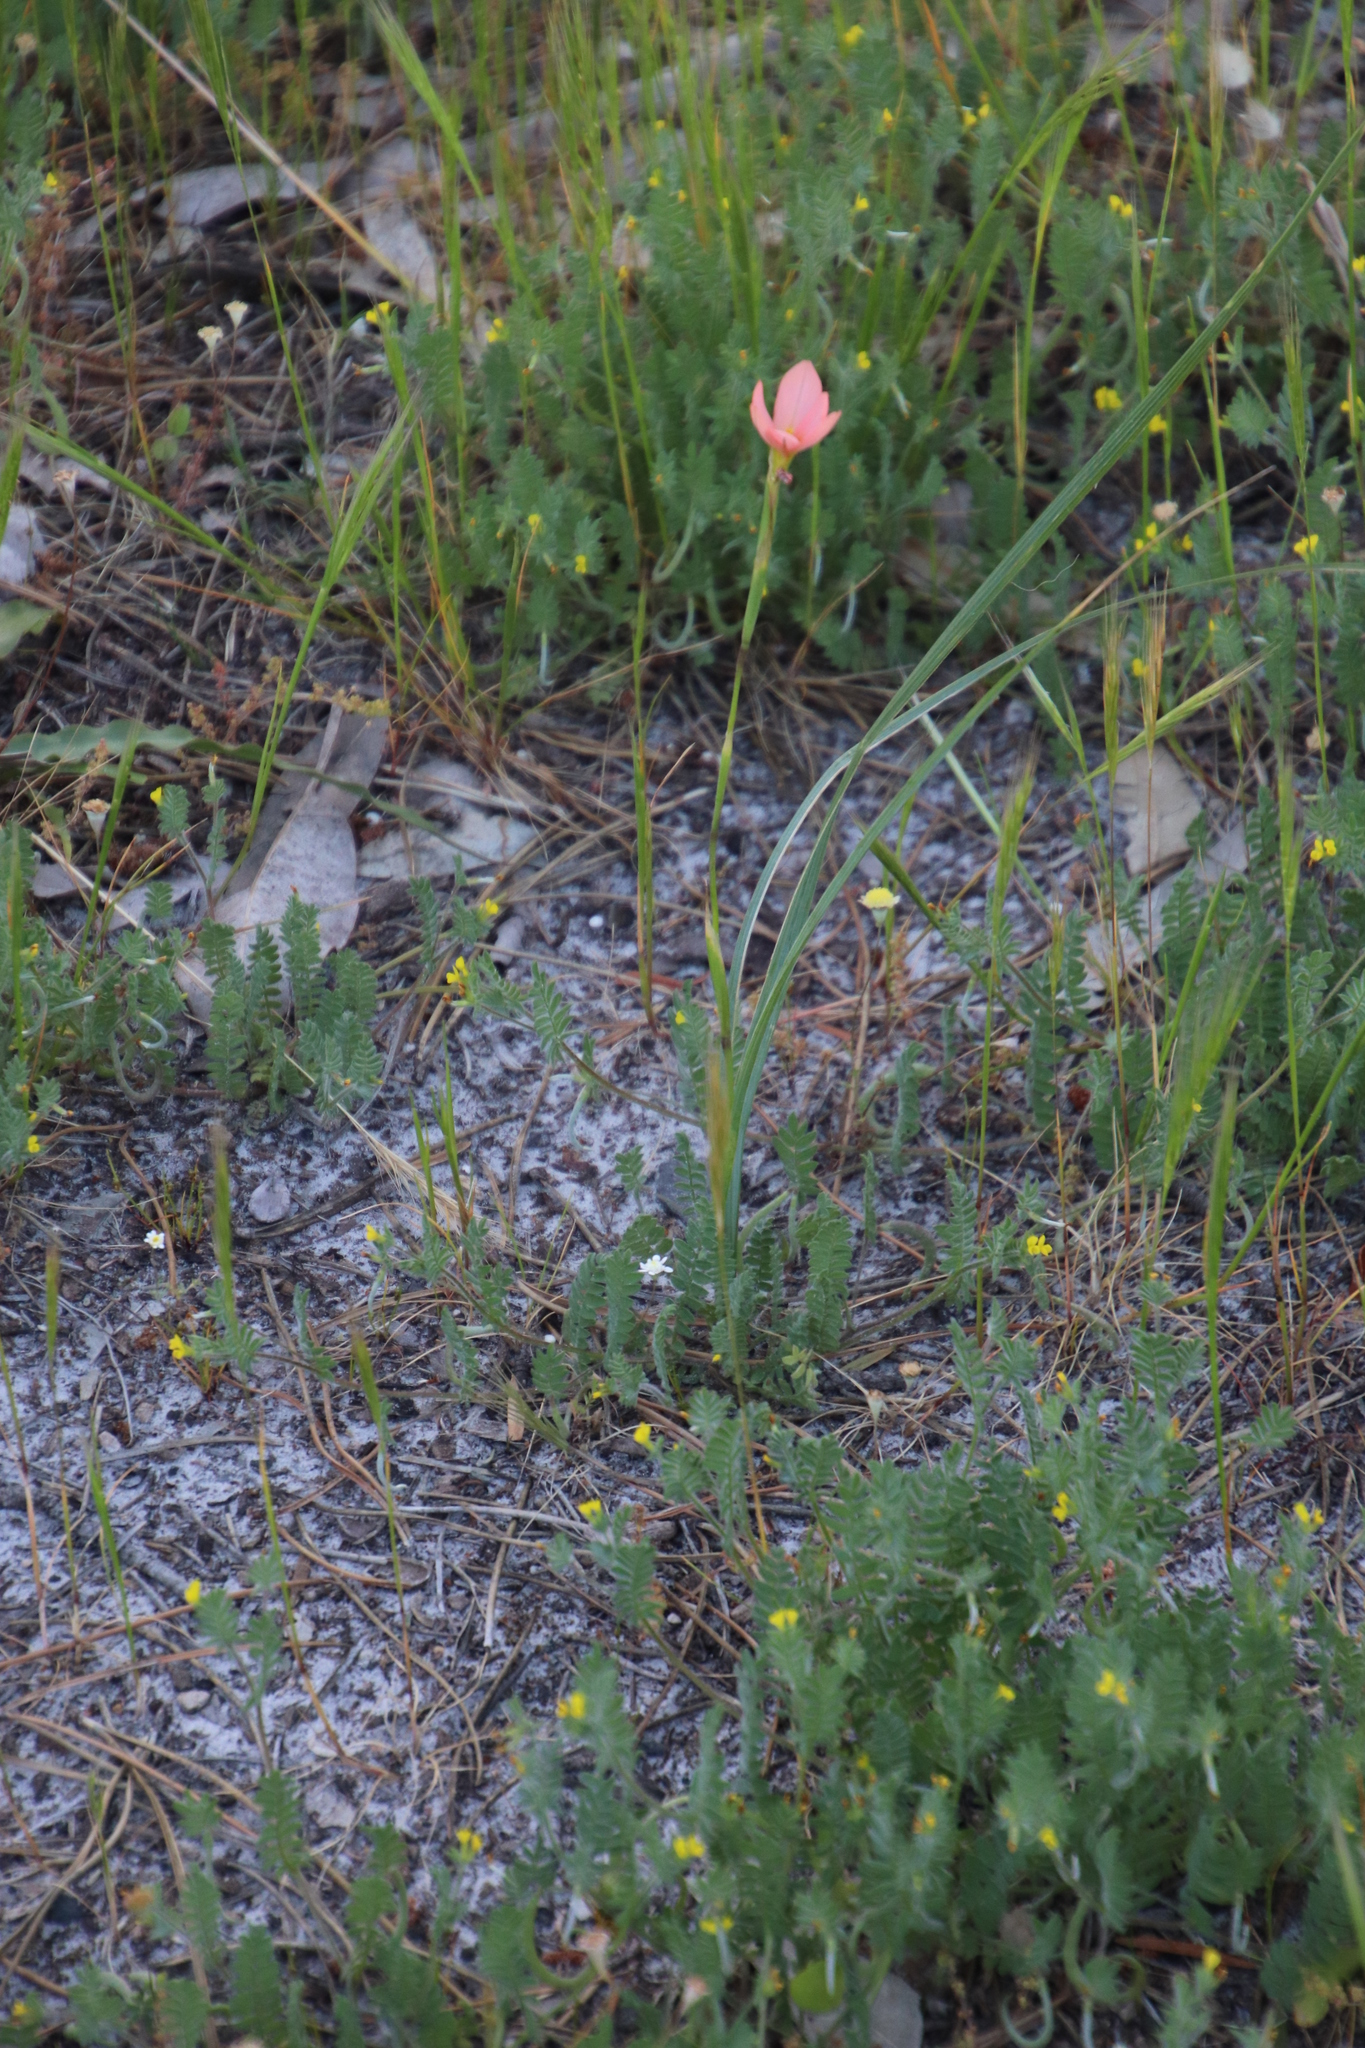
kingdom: Plantae
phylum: Tracheophyta
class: Liliopsida
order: Asparagales
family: Iridaceae
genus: Moraea
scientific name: Moraea miniata
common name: Two-leaf cape-tulip
